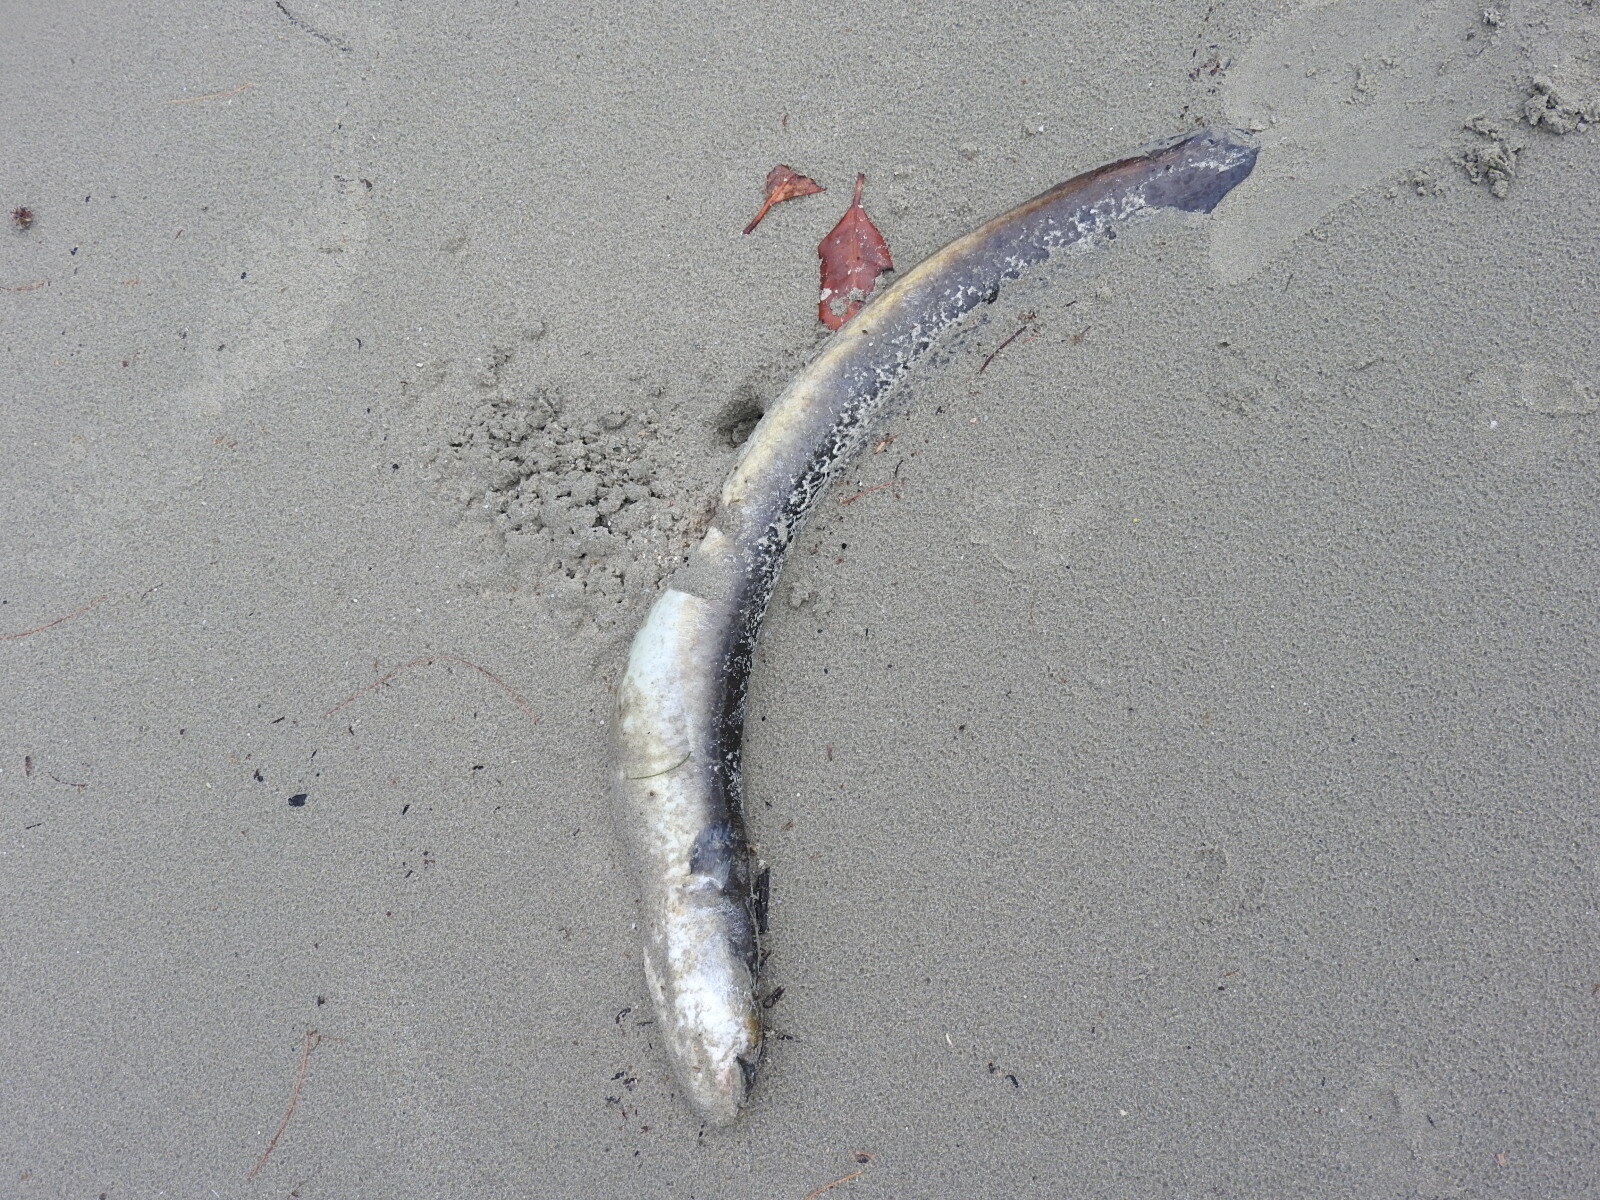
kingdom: Animalia
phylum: Chordata
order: Anguilliformes
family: Anguillidae
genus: Anguilla
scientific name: Anguilla reinhardtii
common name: Longfin eel
